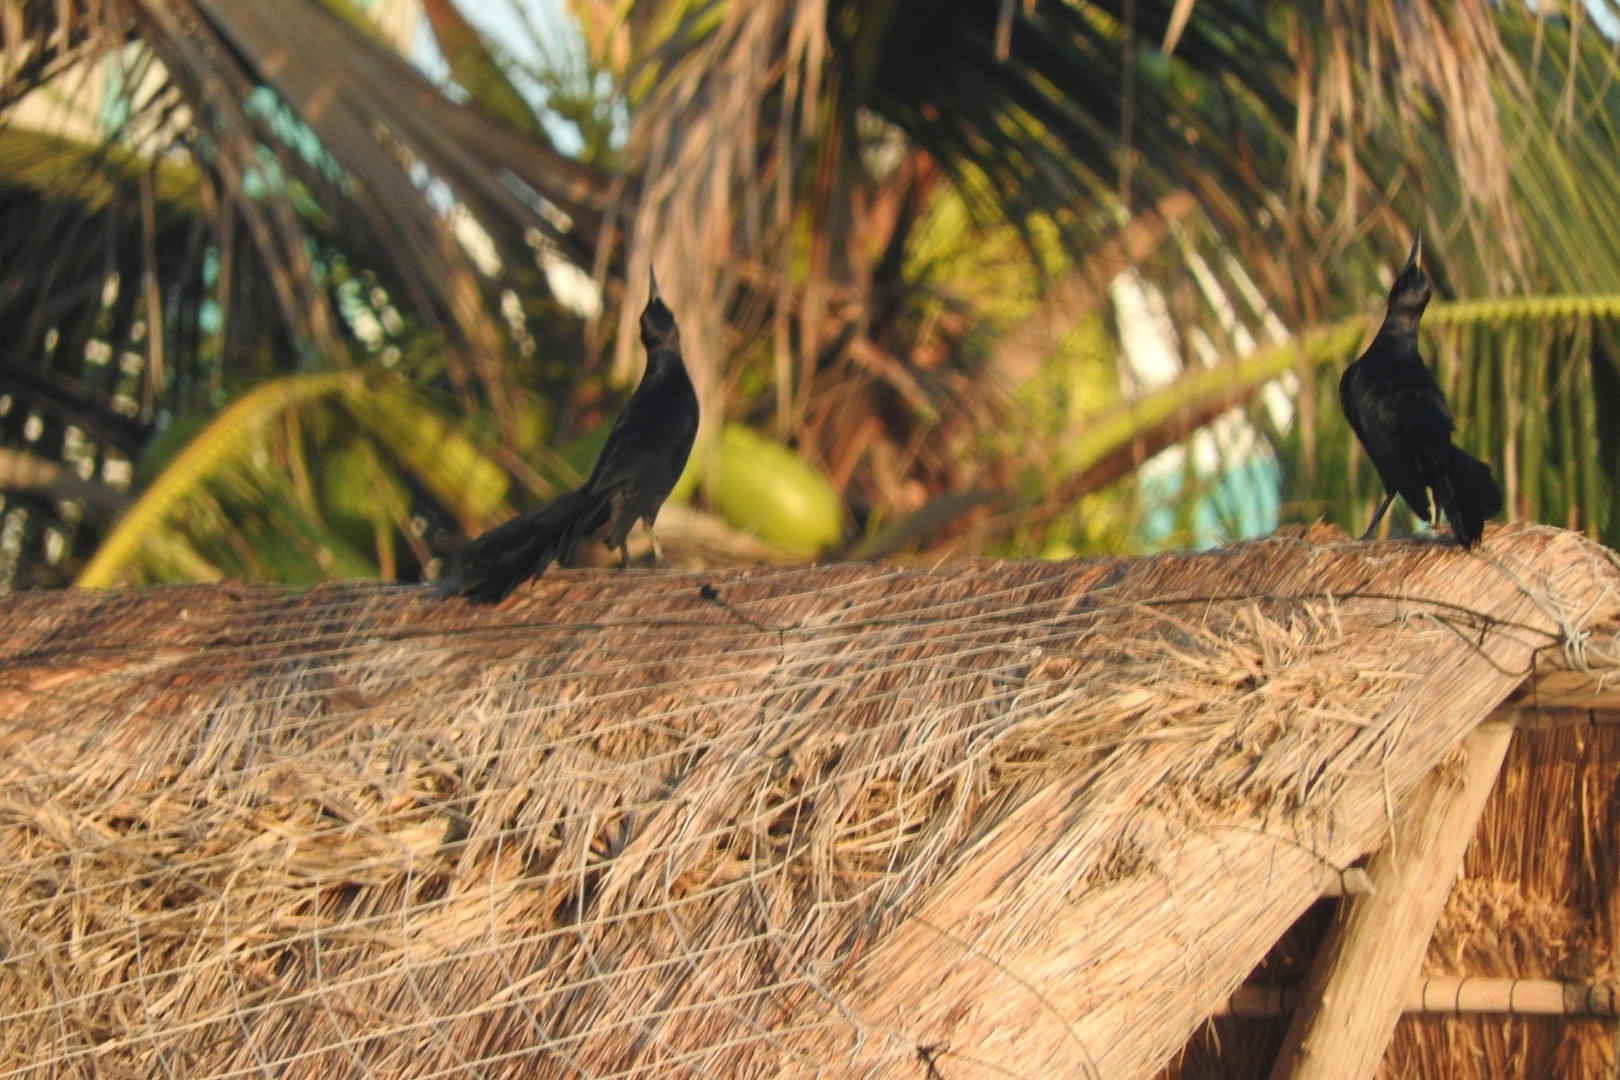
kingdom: Animalia
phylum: Chordata
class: Aves
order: Passeriformes
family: Icteridae
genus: Quiscalus
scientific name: Quiscalus mexicanus
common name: Great-tailed grackle
